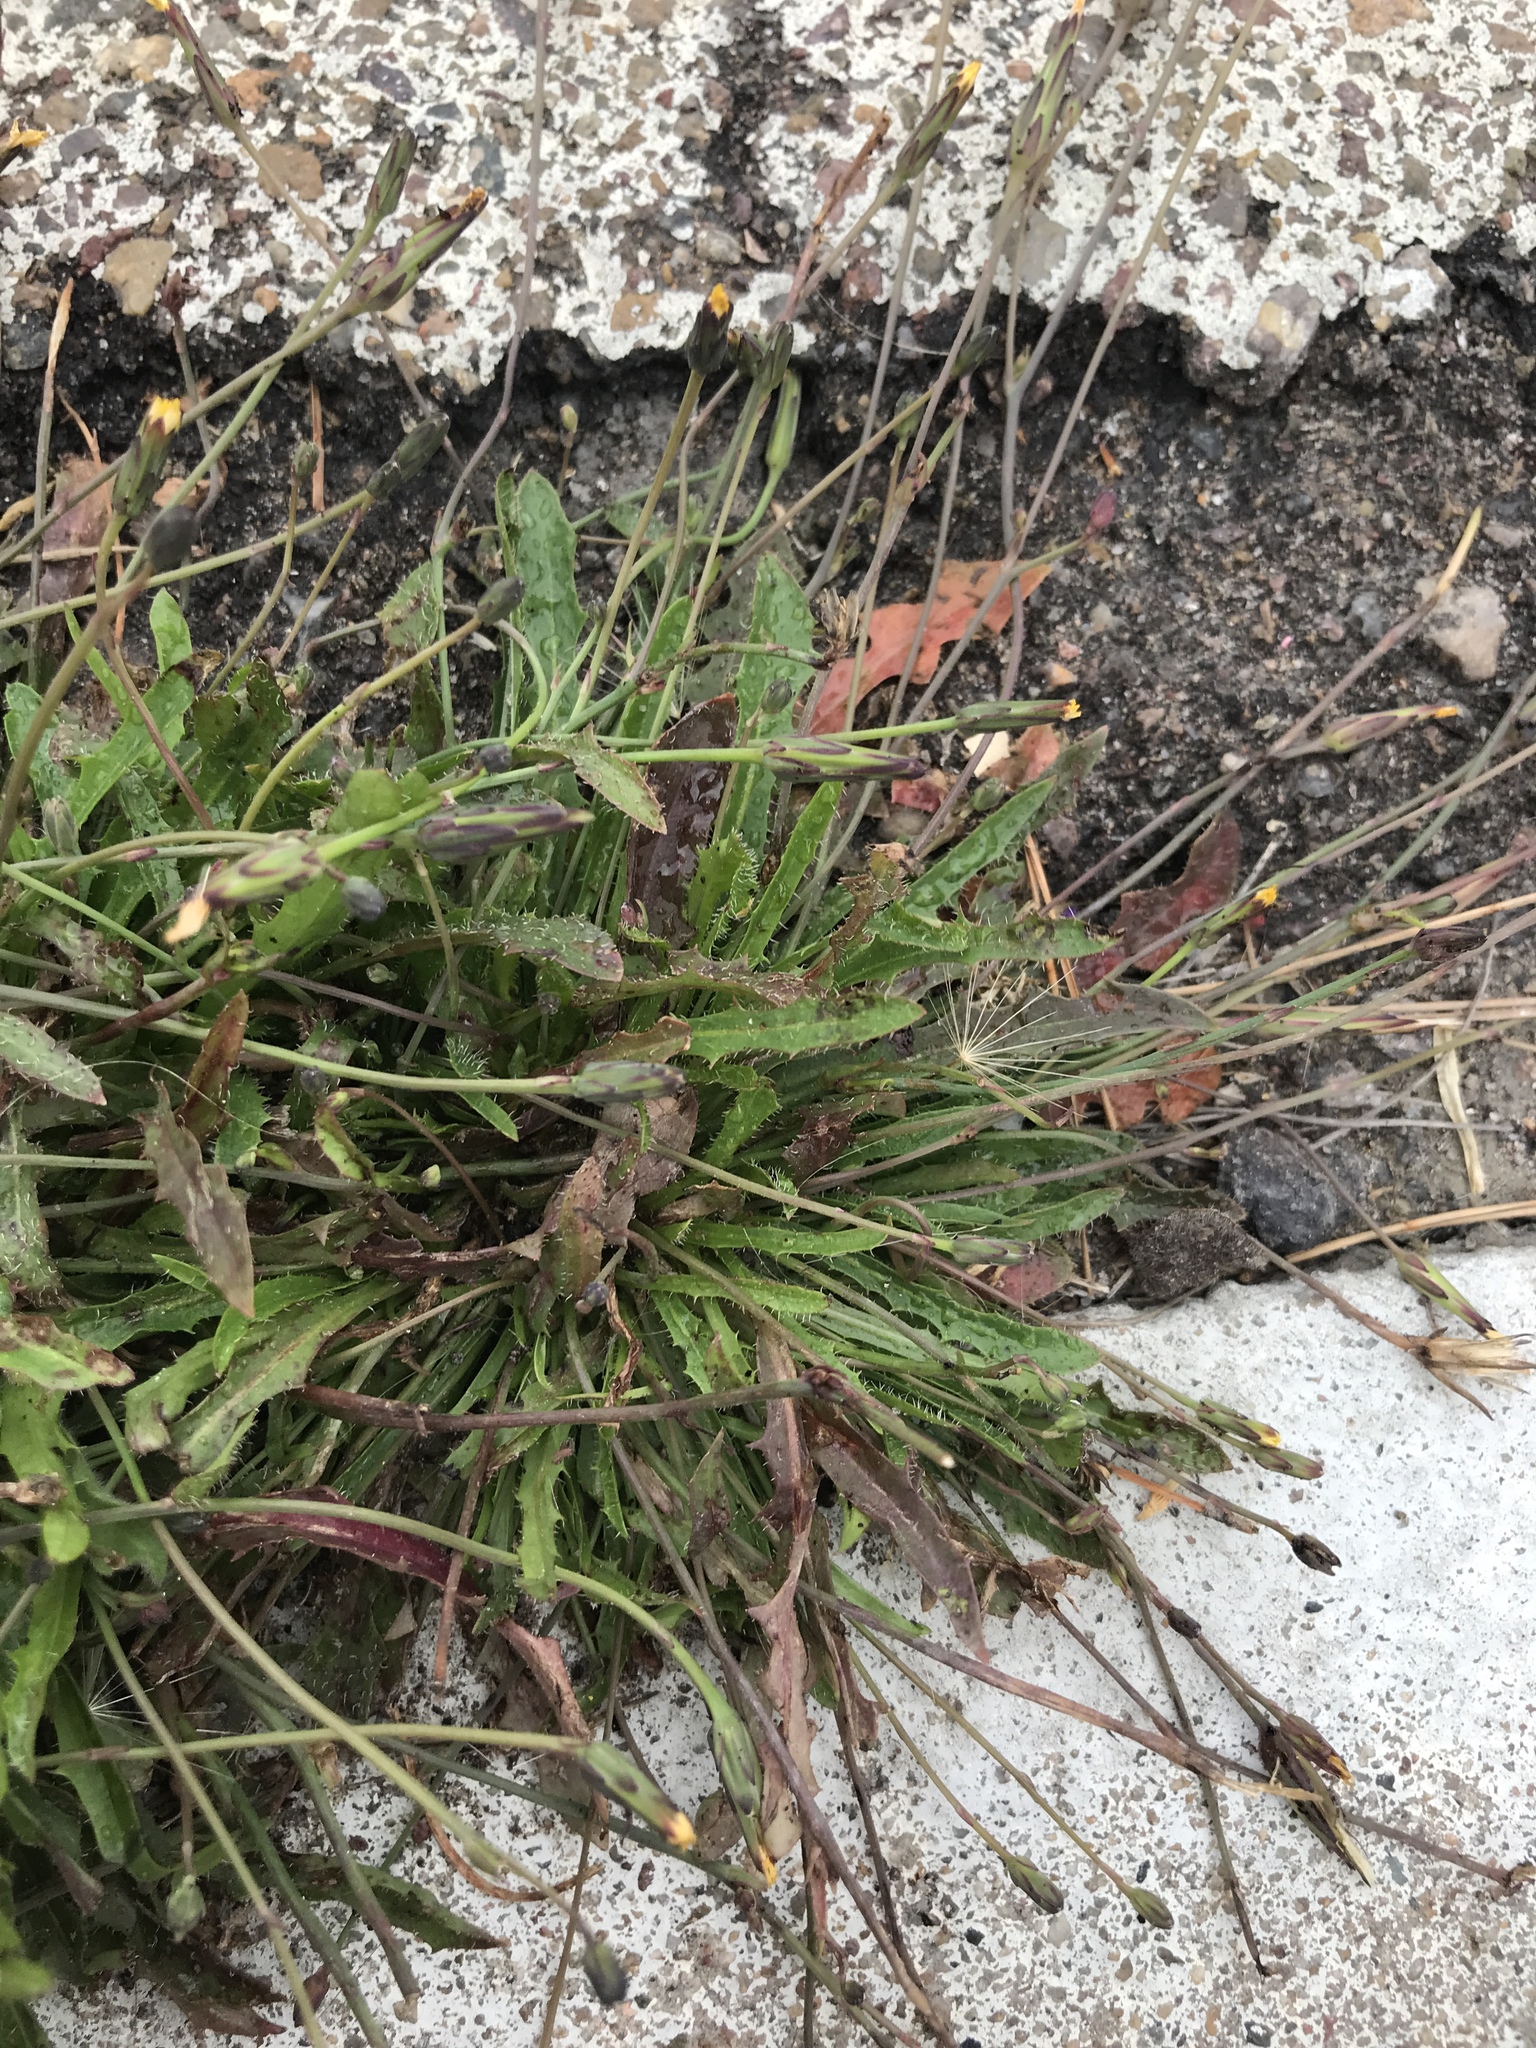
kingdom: Plantae
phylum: Tracheophyta
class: Magnoliopsida
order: Asterales
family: Asteraceae
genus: Hypochaeris
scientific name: Hypochaeris glabra
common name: Smooth catsear
